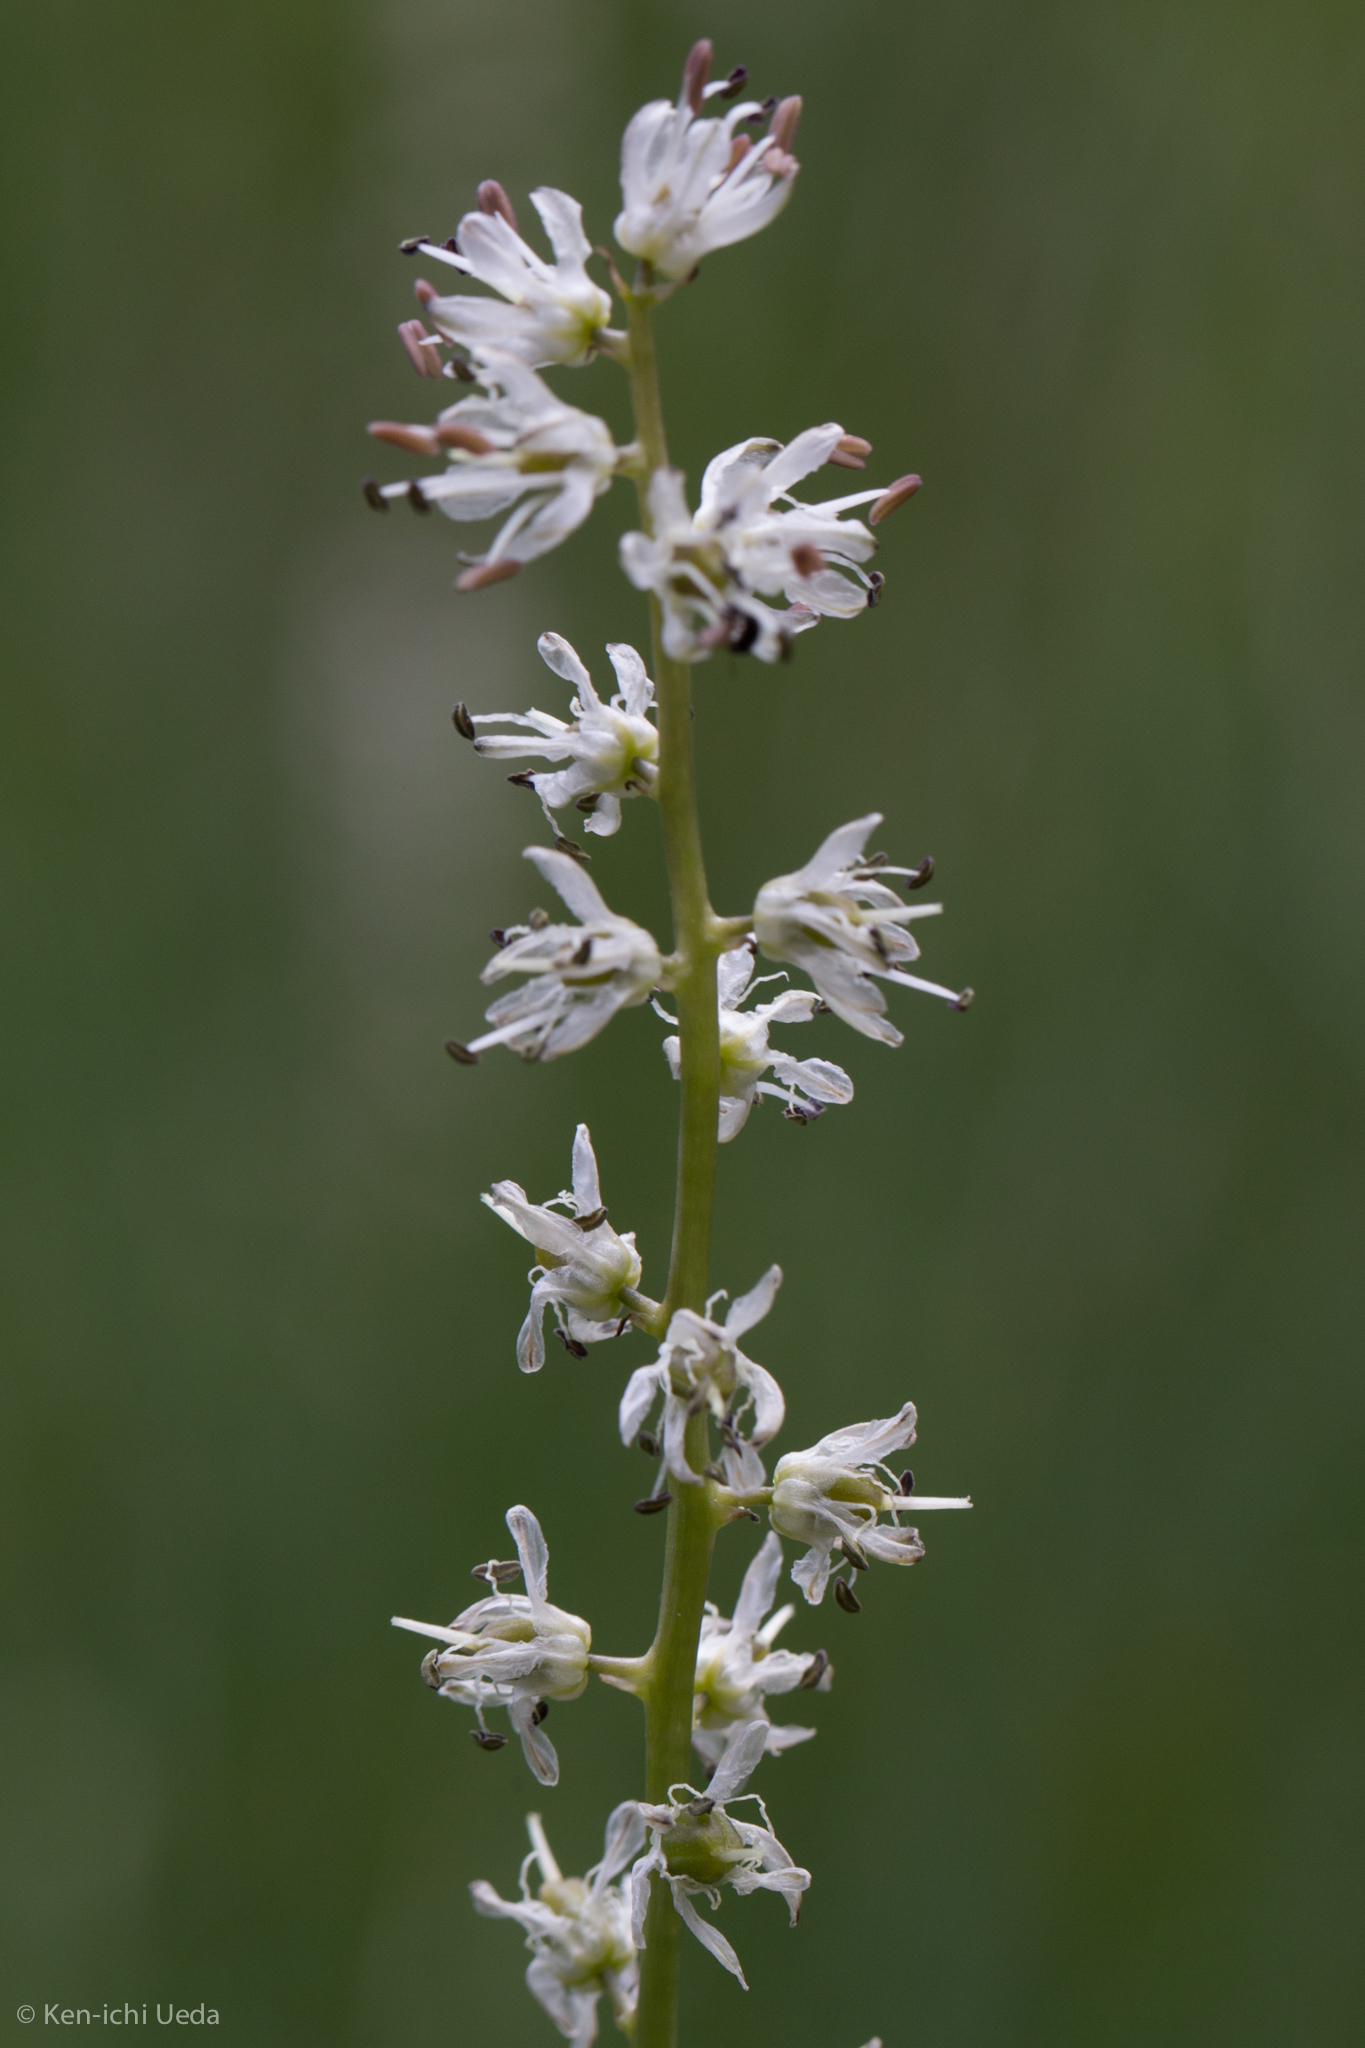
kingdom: Plantae
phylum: Tracheophyta
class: Liliopsida
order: Asparagales
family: Asparagaceae
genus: Hastingsia
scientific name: Hastingsia alba
